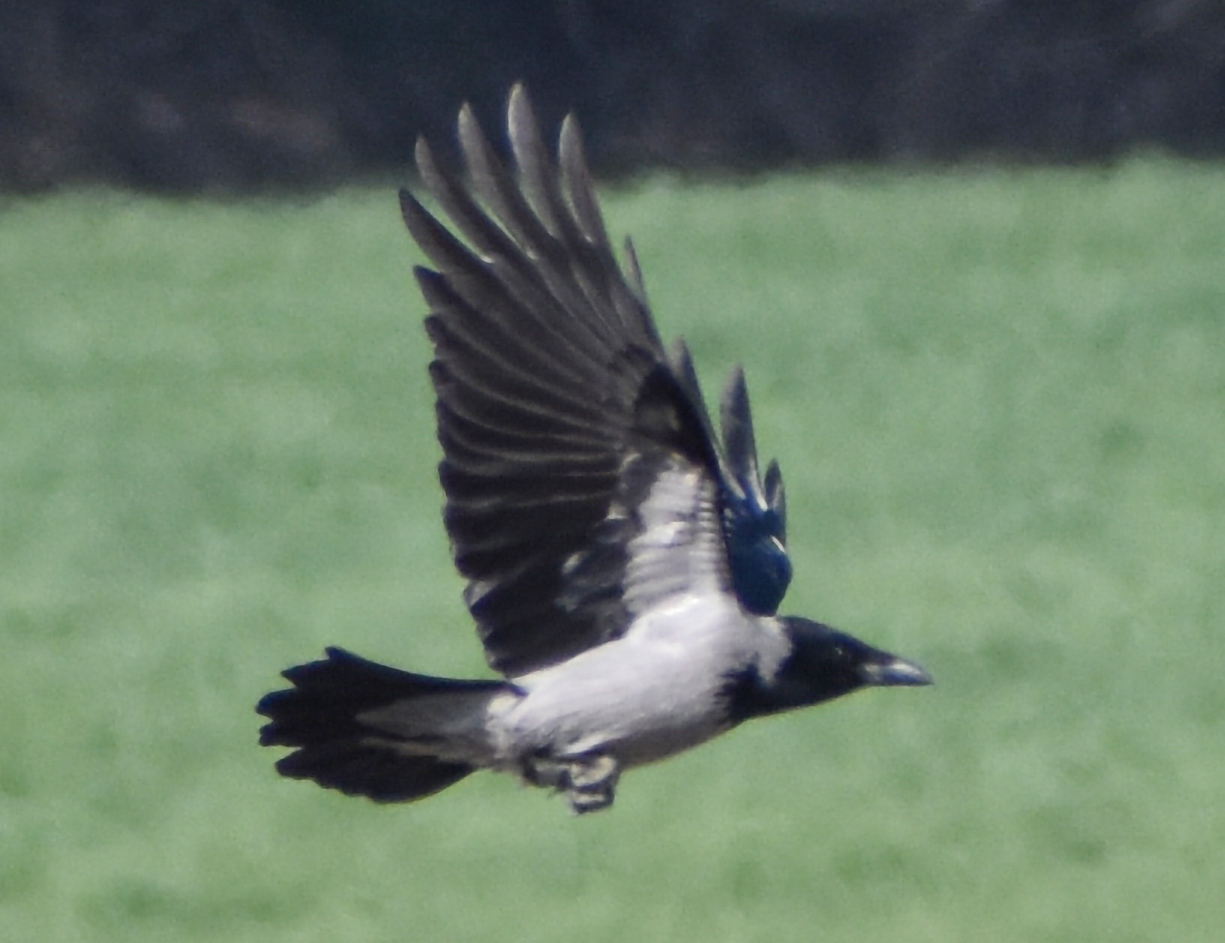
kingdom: Animalia
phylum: Chordata
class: Aves
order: Passeriformes
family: Corvidae
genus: Corvus
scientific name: Corvus cornix
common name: Hooded crow
